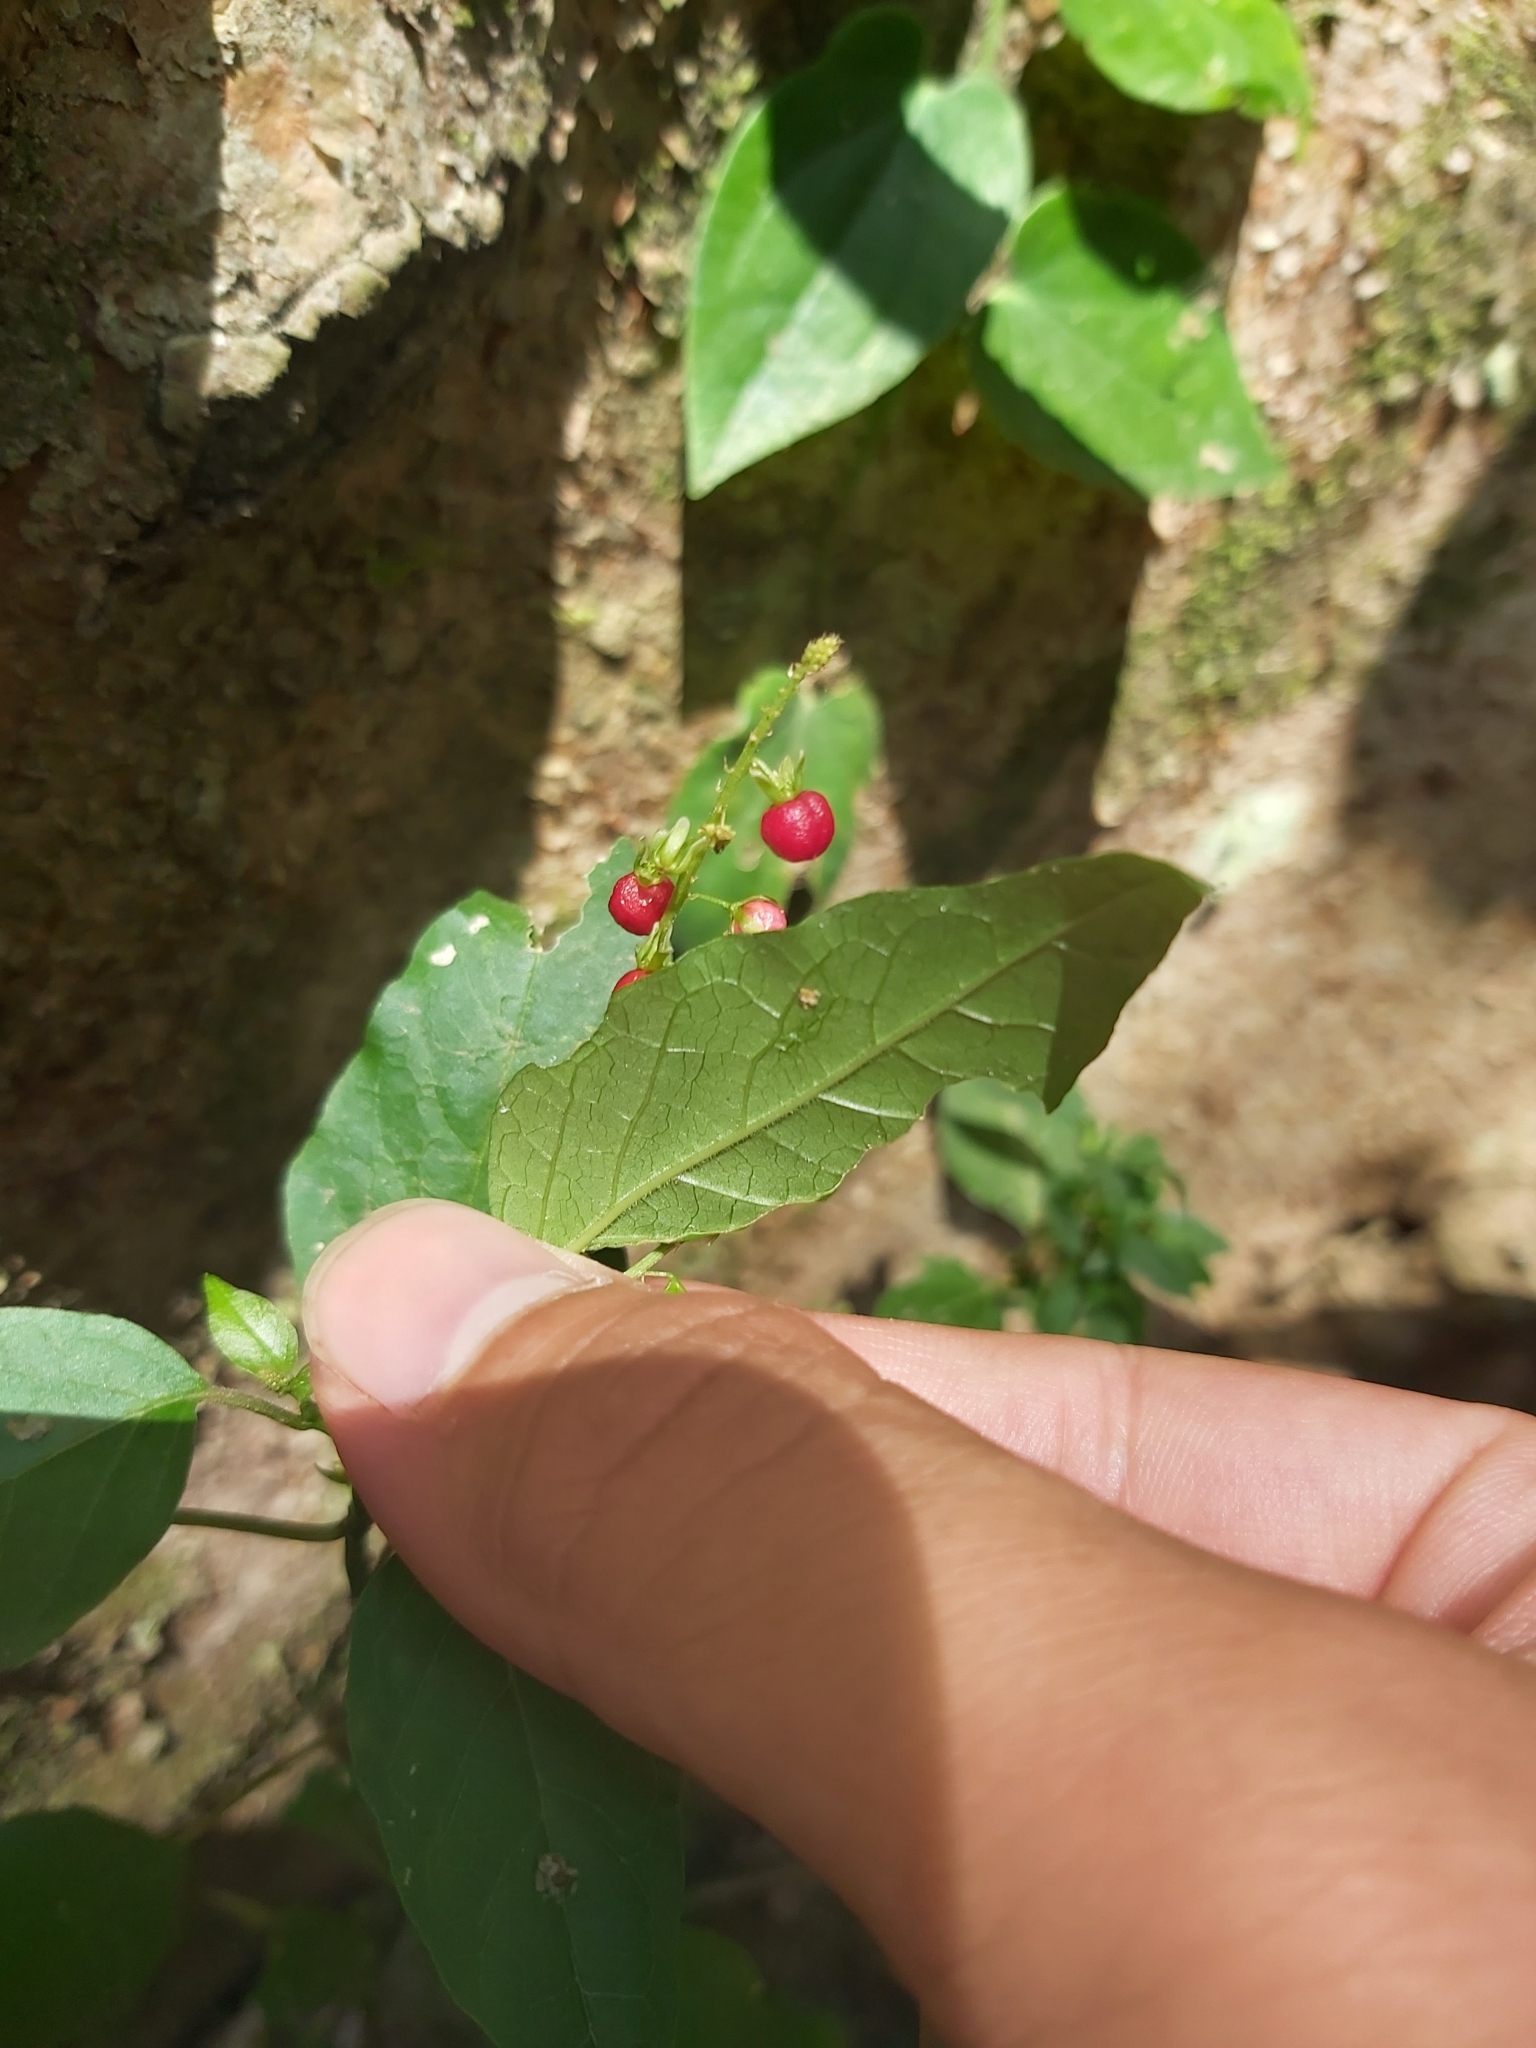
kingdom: Plantae
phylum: Tracheophyta
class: Magnoliopsida
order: Caryophyllales
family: Phytolaccaceae
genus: Rivina
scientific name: Rivina humilis
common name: Rougeplant
